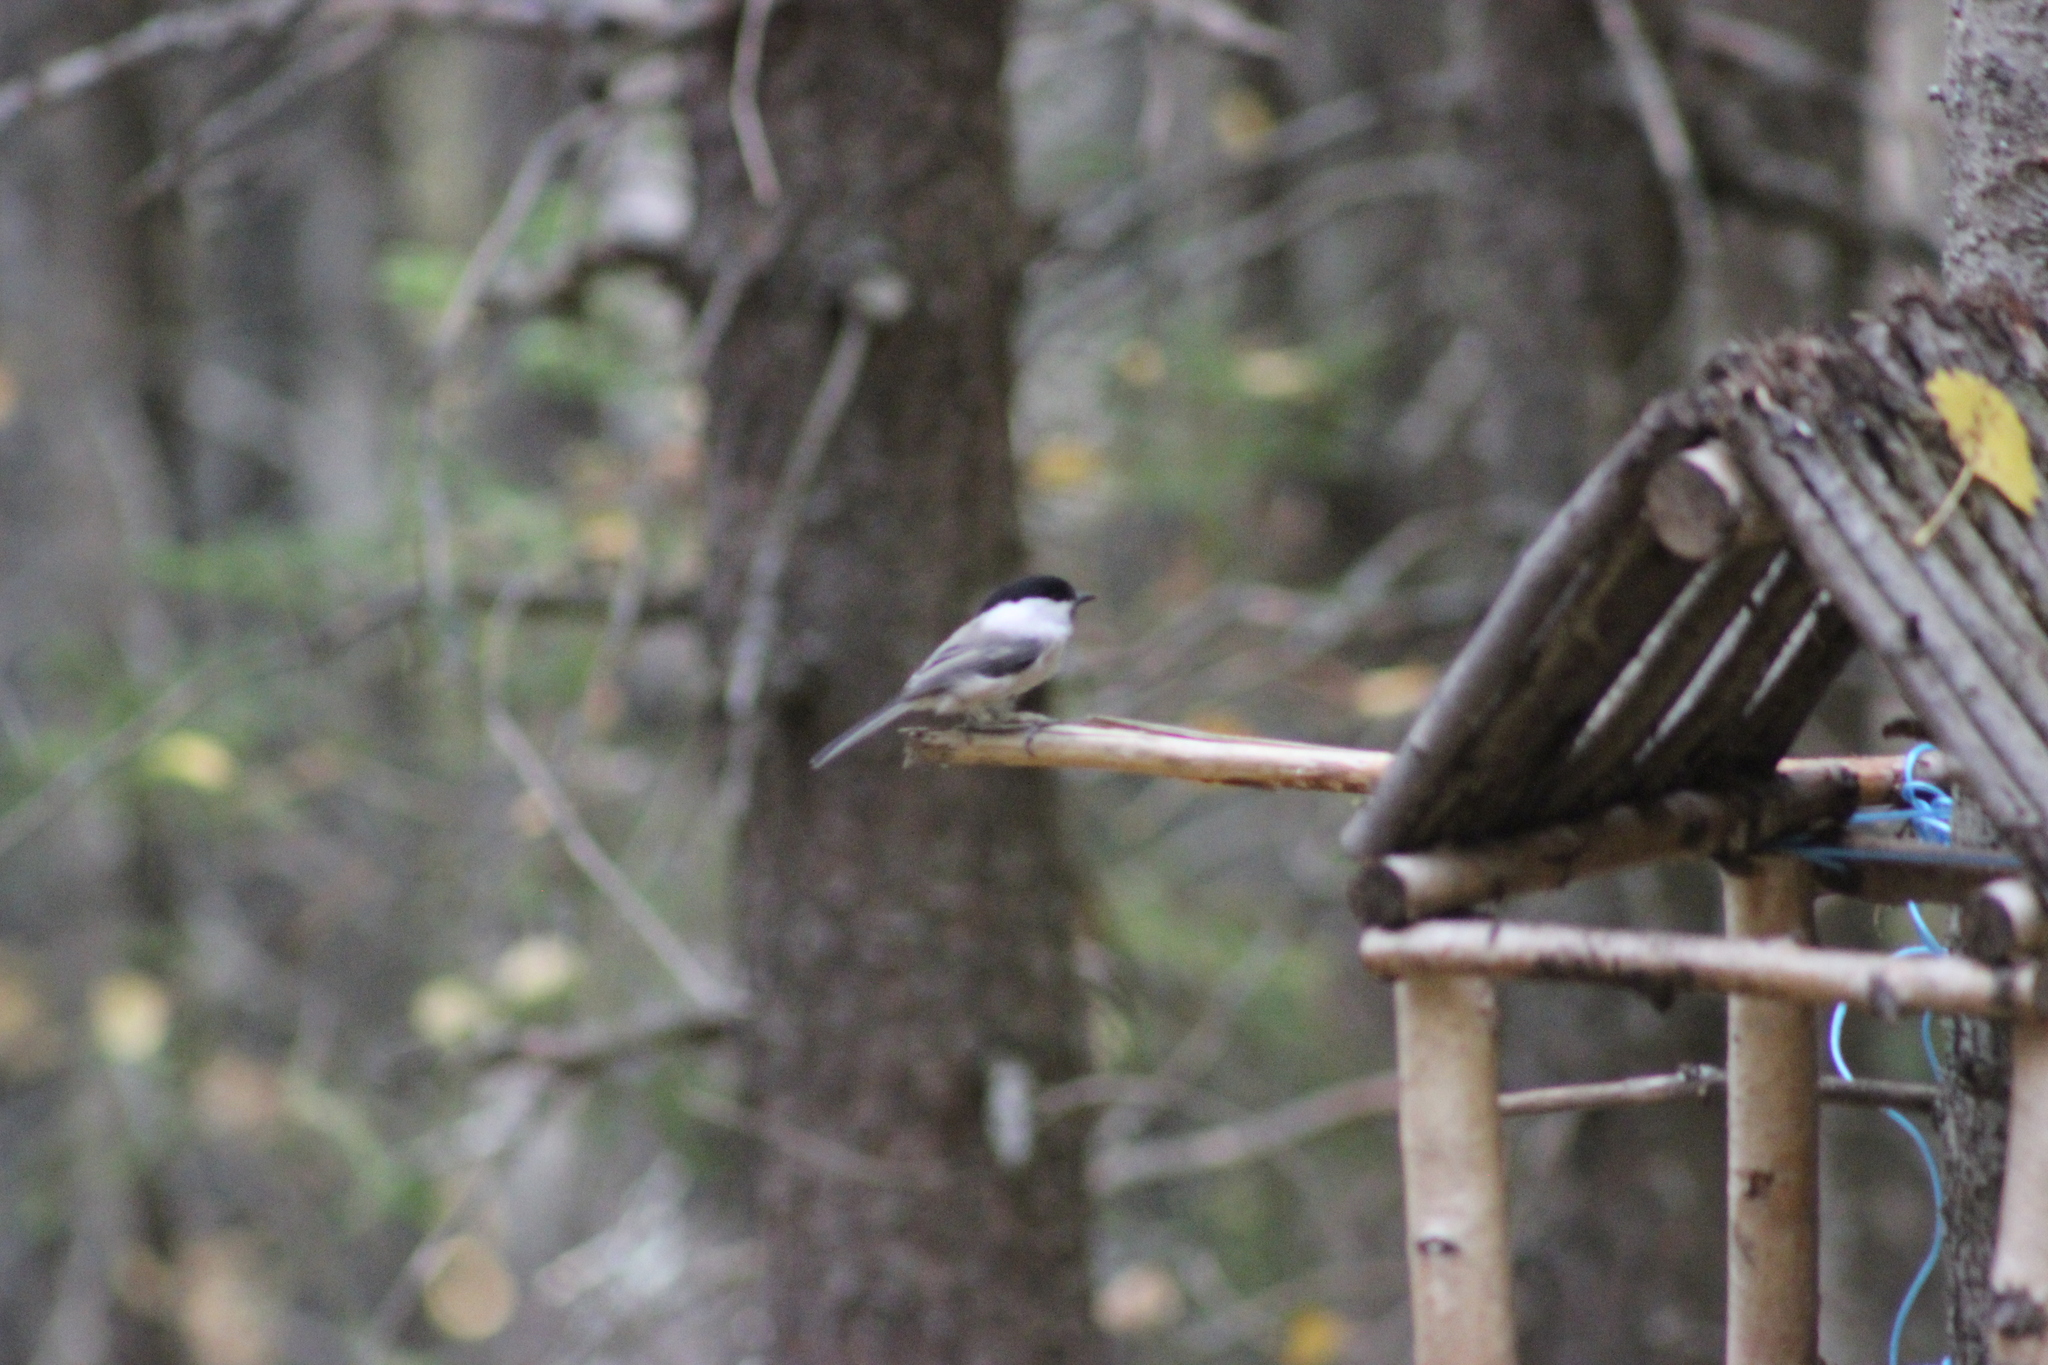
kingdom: Animalia
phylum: Chordata
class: Aves
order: Passeriformes
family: Paridae
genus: Poecile
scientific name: Poecile montanus
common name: Willow tit
